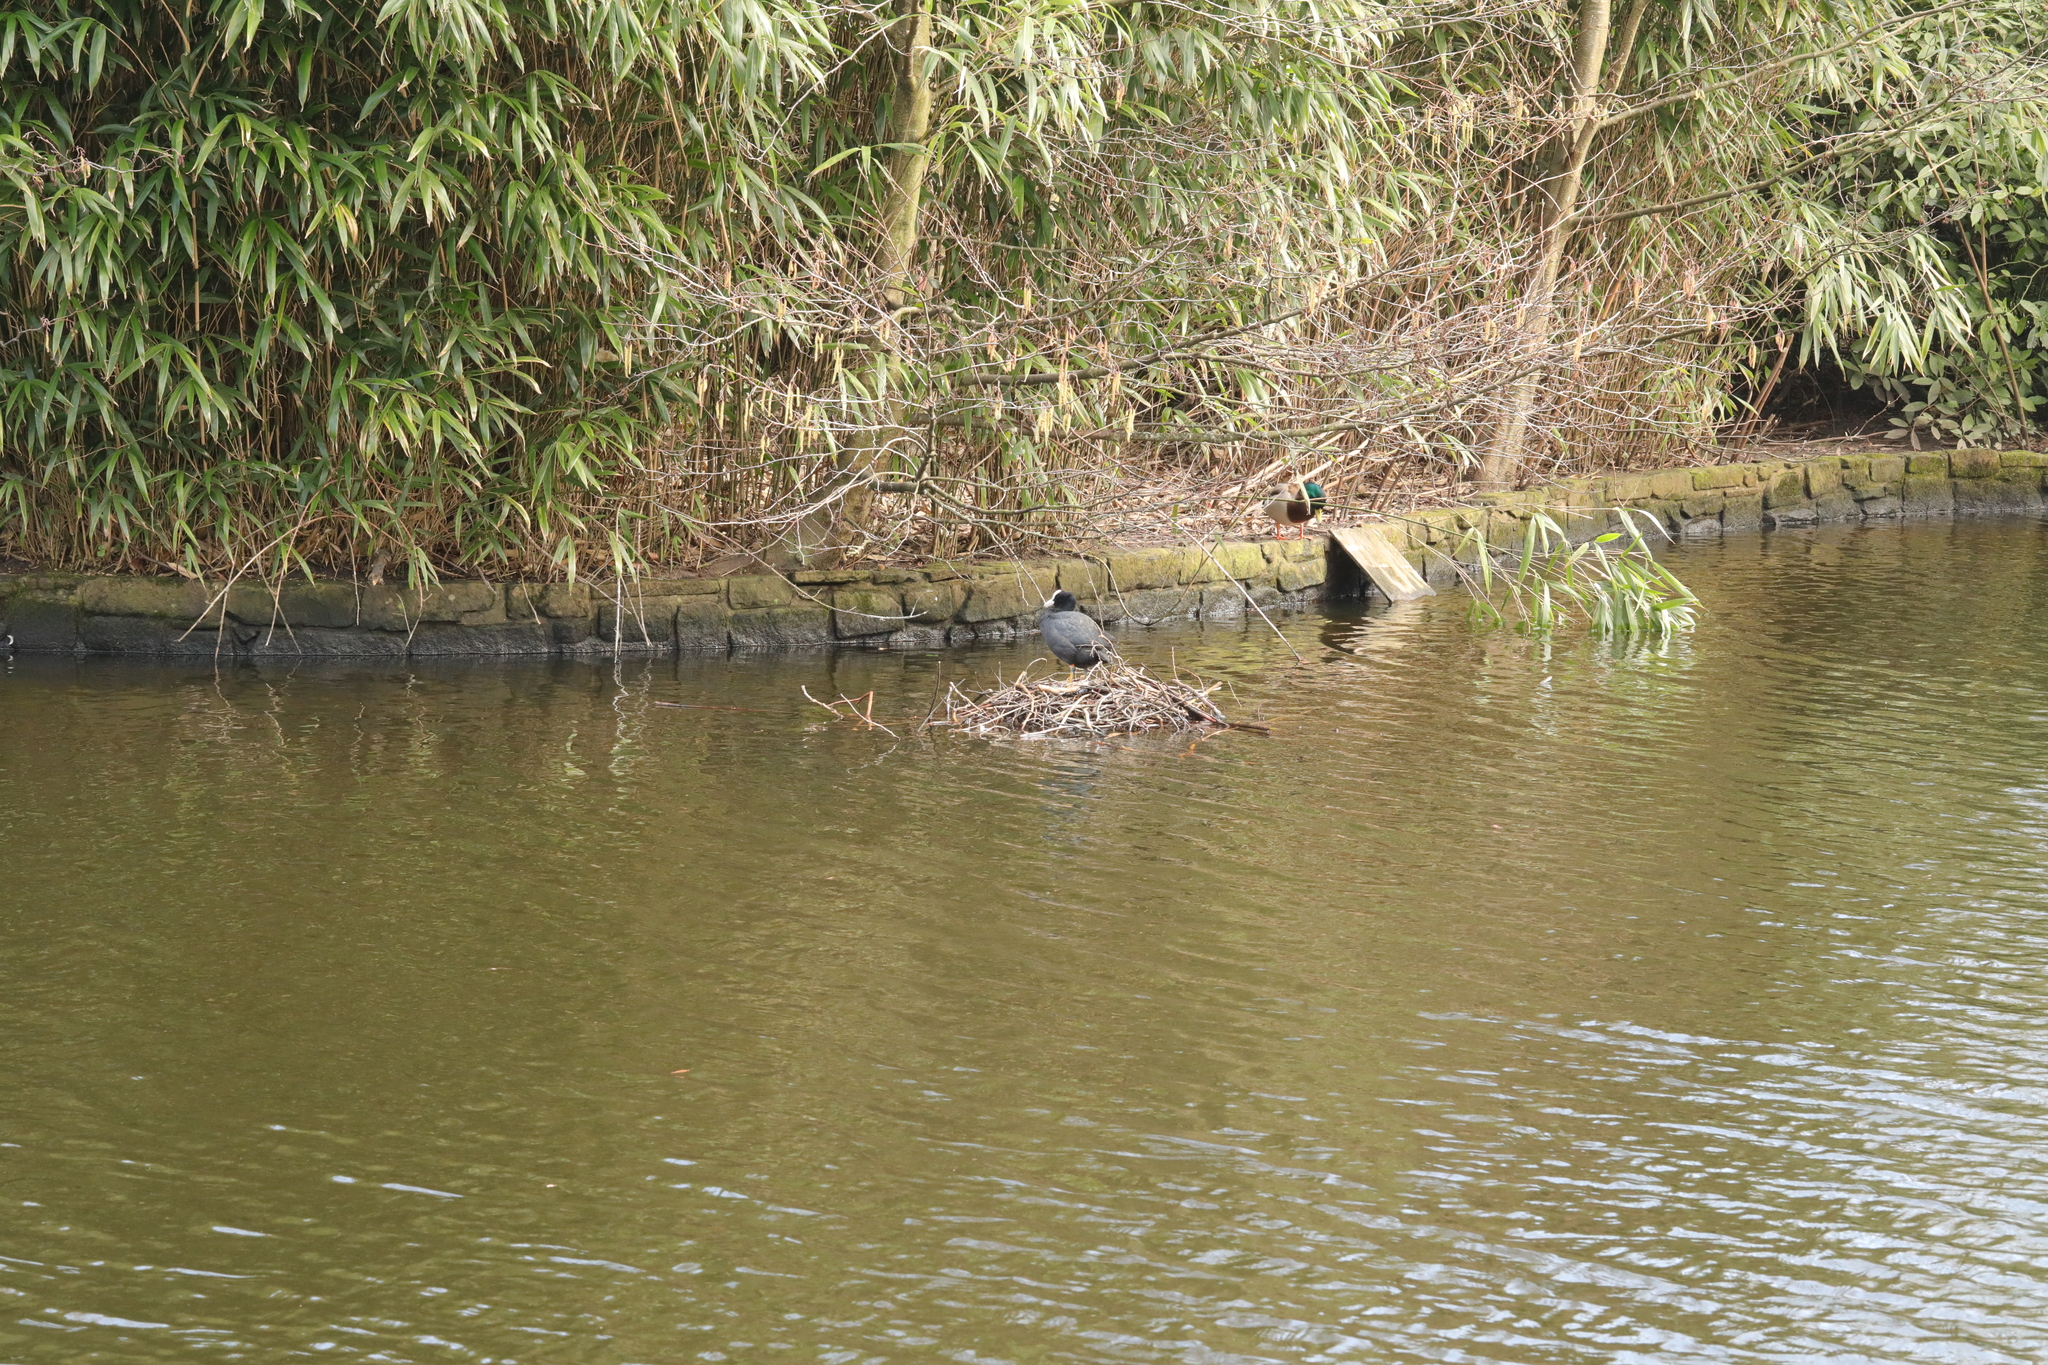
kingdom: Animalia
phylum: Chordata
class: Aves
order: Gruiformes
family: Rallidae
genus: Fulica
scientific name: Fulica atra
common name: Eurasian coot
